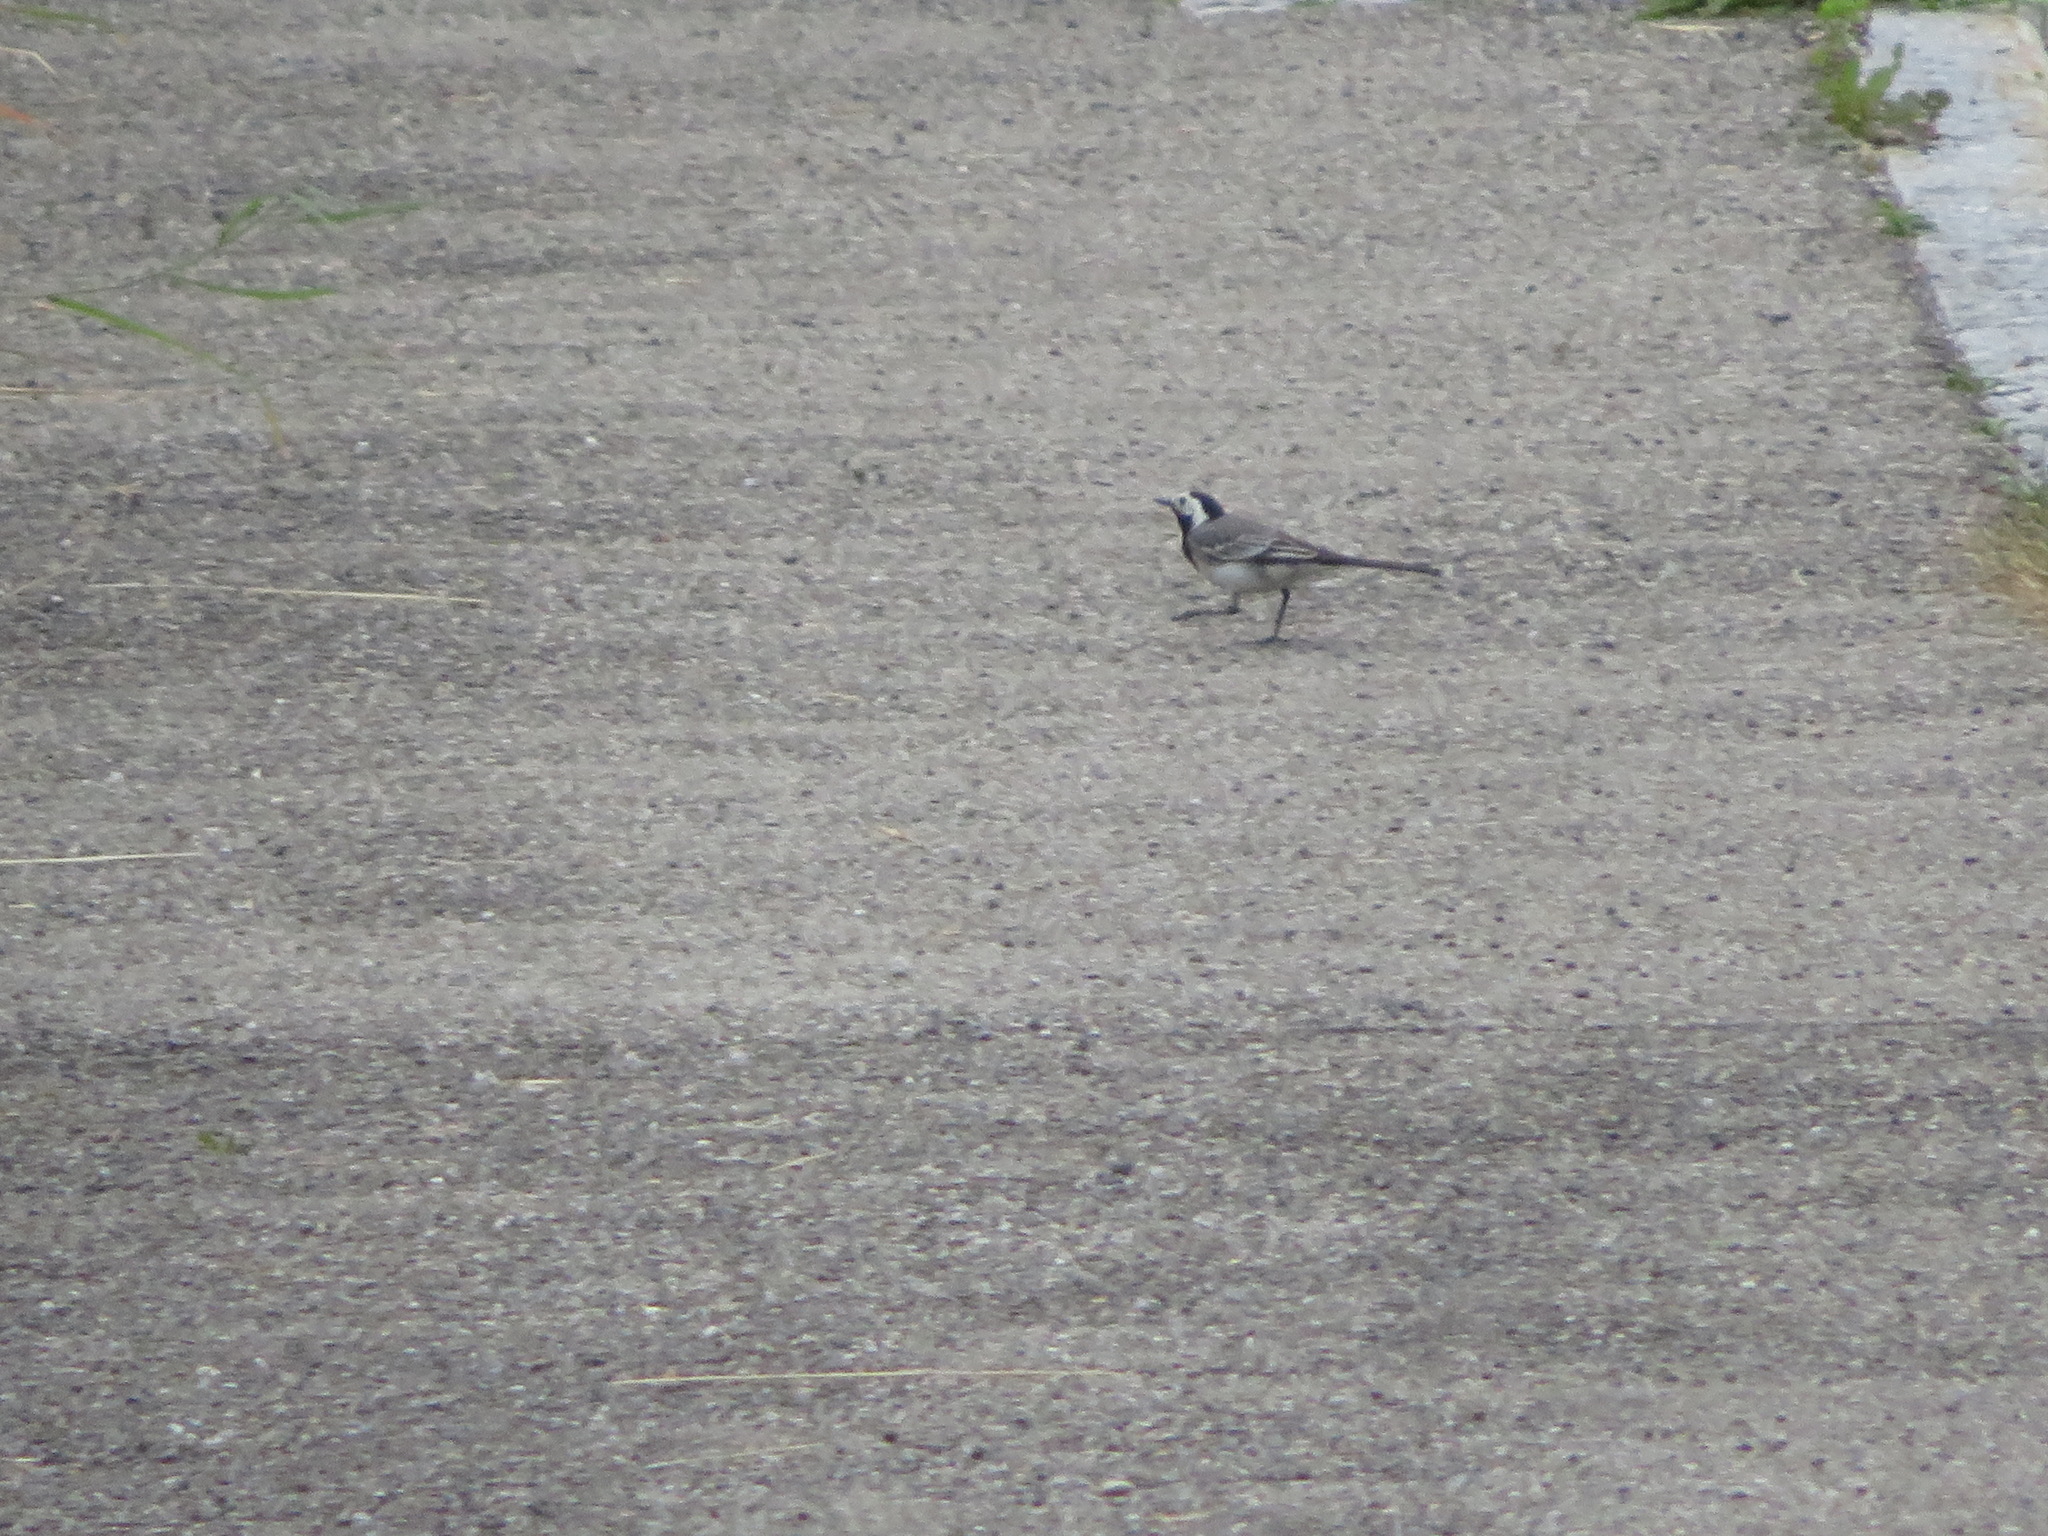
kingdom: Animalia
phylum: Chordata
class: Aves
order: Passeriformes
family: Motacillidae
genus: Motacilla
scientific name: Motacilla alba
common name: White wagtail
